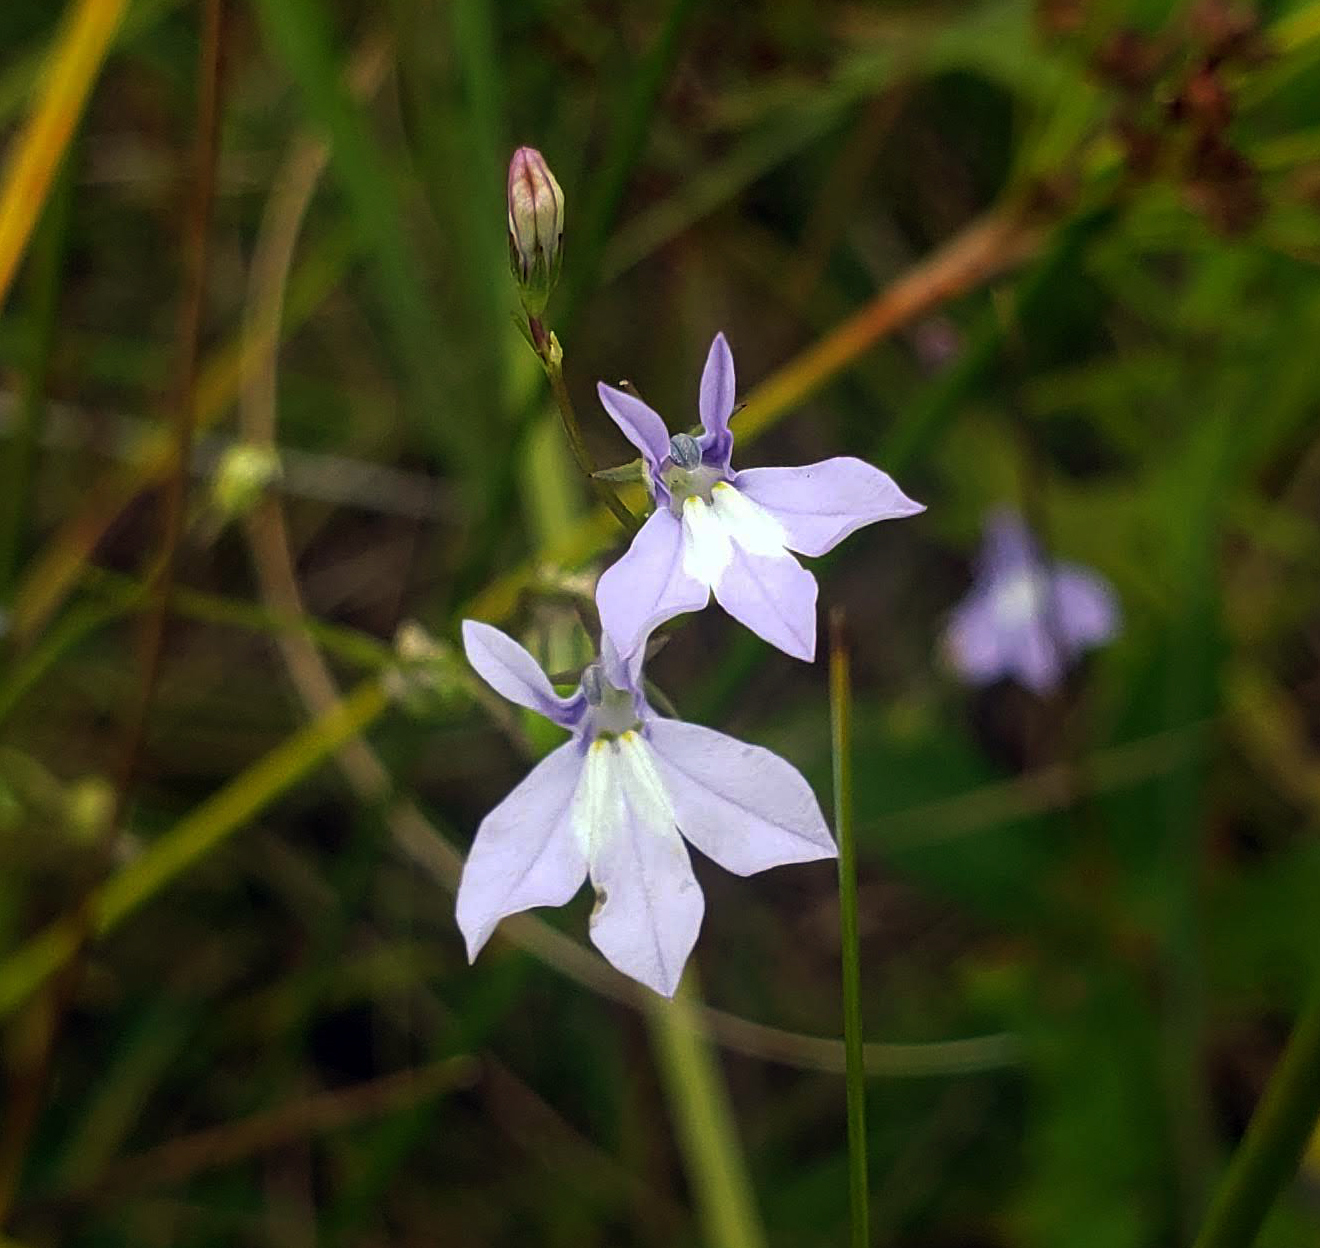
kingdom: Plantae
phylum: Tracheophyta
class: Magnoliopsida
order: Asterales
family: Campanulaceae
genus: Lobelia
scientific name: Lobelia kalmii
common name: Kalm's lobelia
